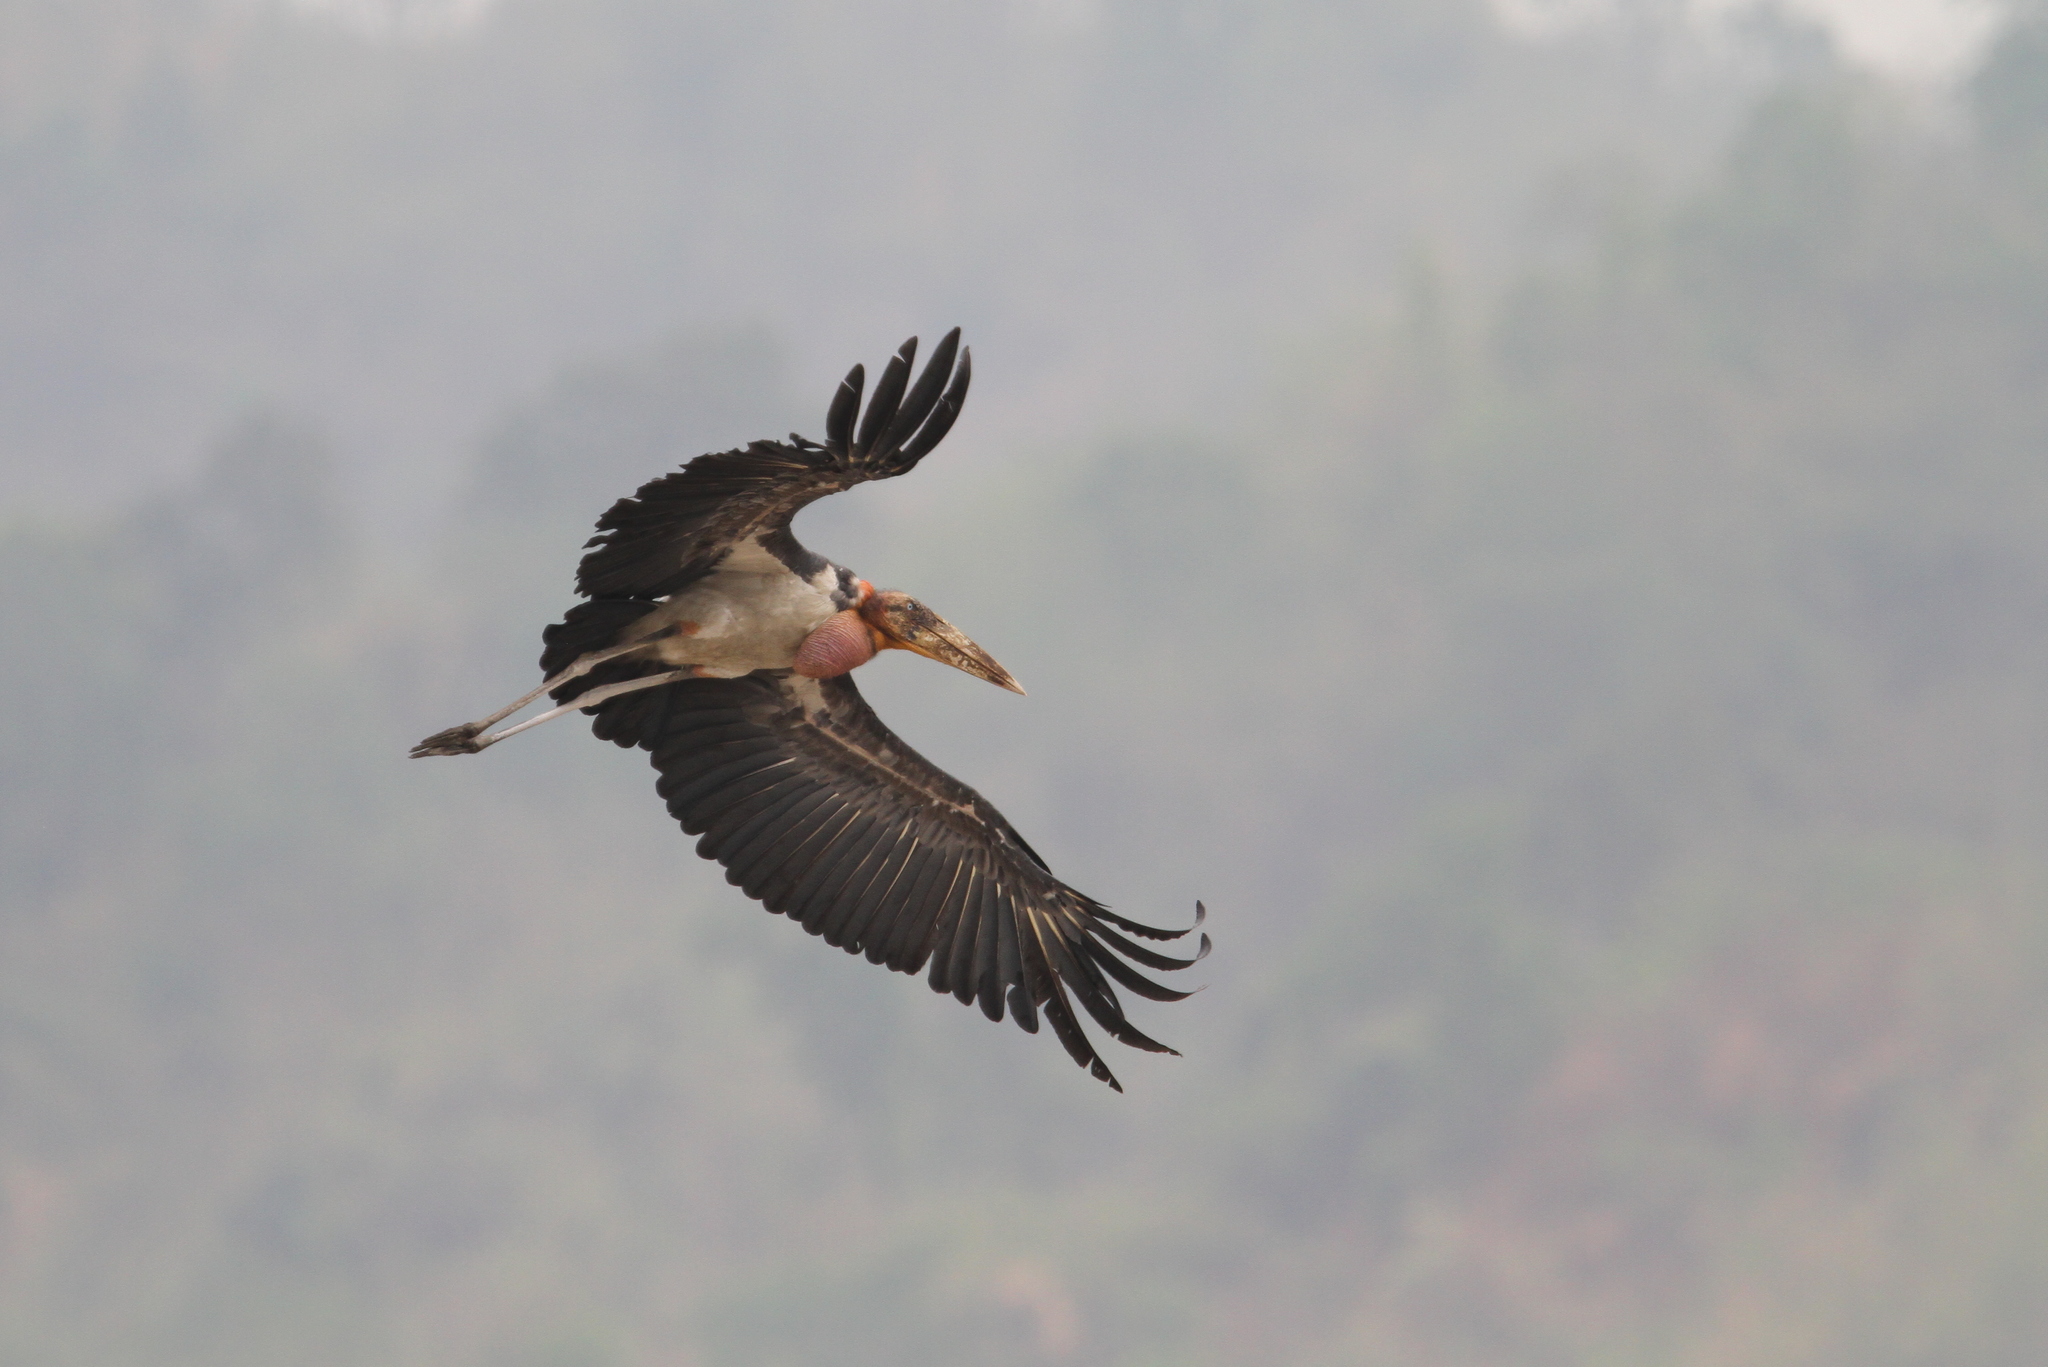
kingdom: Animalia
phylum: Chordata
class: Aves
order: Ciconiiformes
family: Ciconiidae
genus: Leptoptilos
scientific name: Leptoptilos dubius
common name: Greater adjutant
